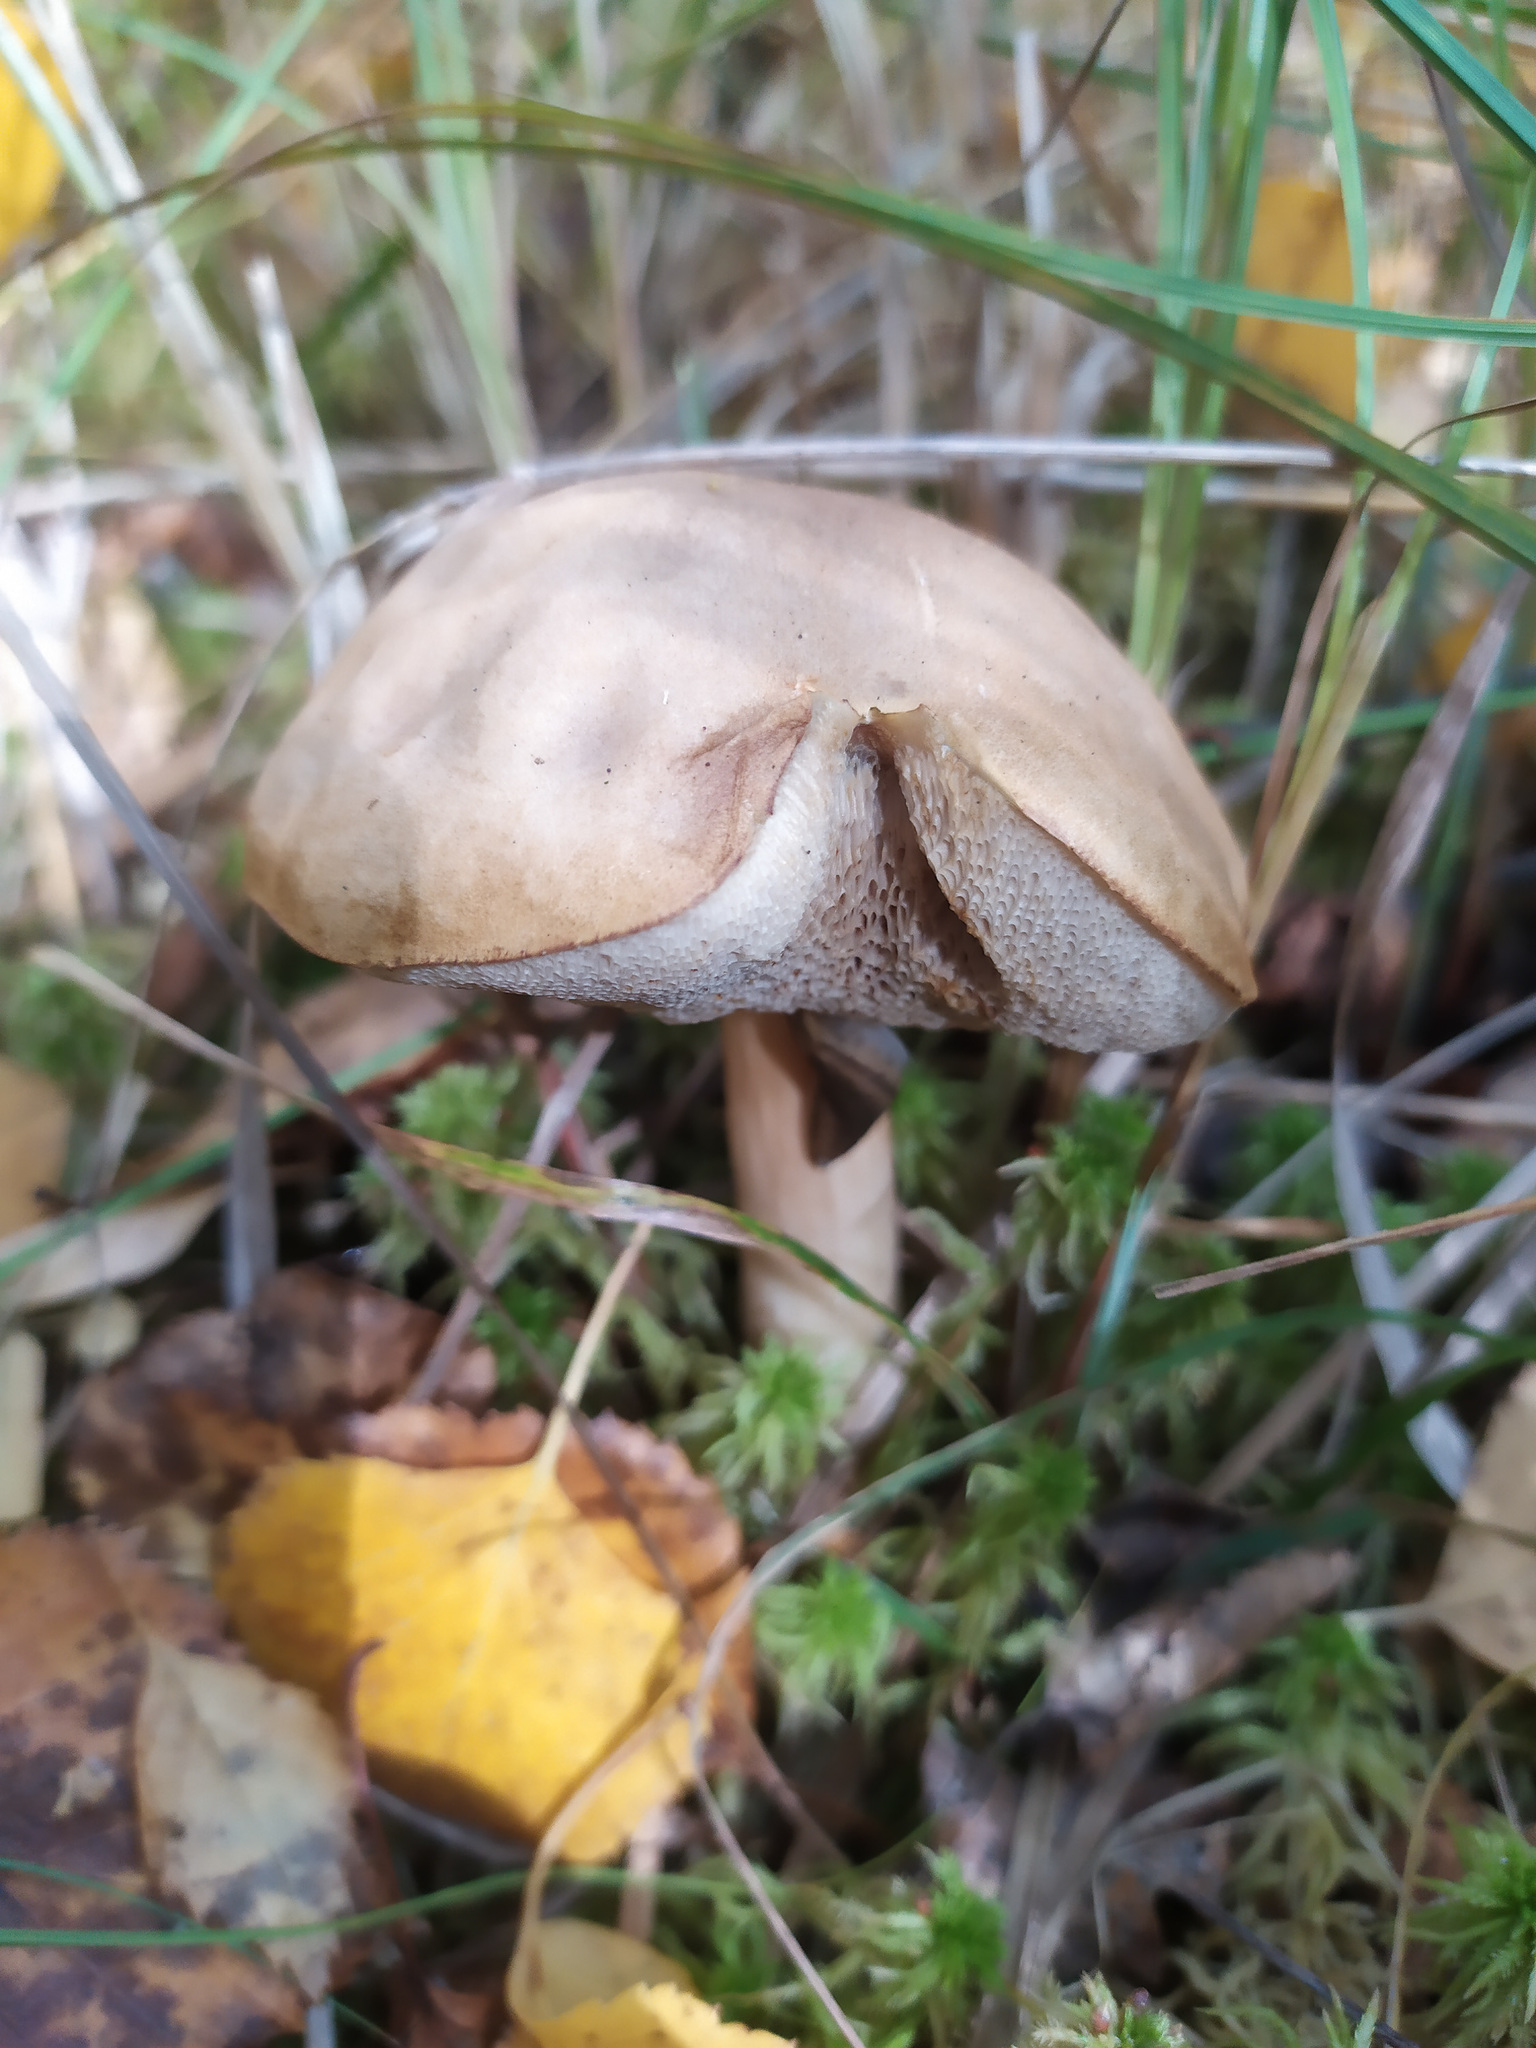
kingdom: Fungi
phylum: Basidiomycota
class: Agaricomycetes
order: Boletales
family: Boletaceae
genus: Leccinum
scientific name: Leccinum scabrum
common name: Blushing bolete
